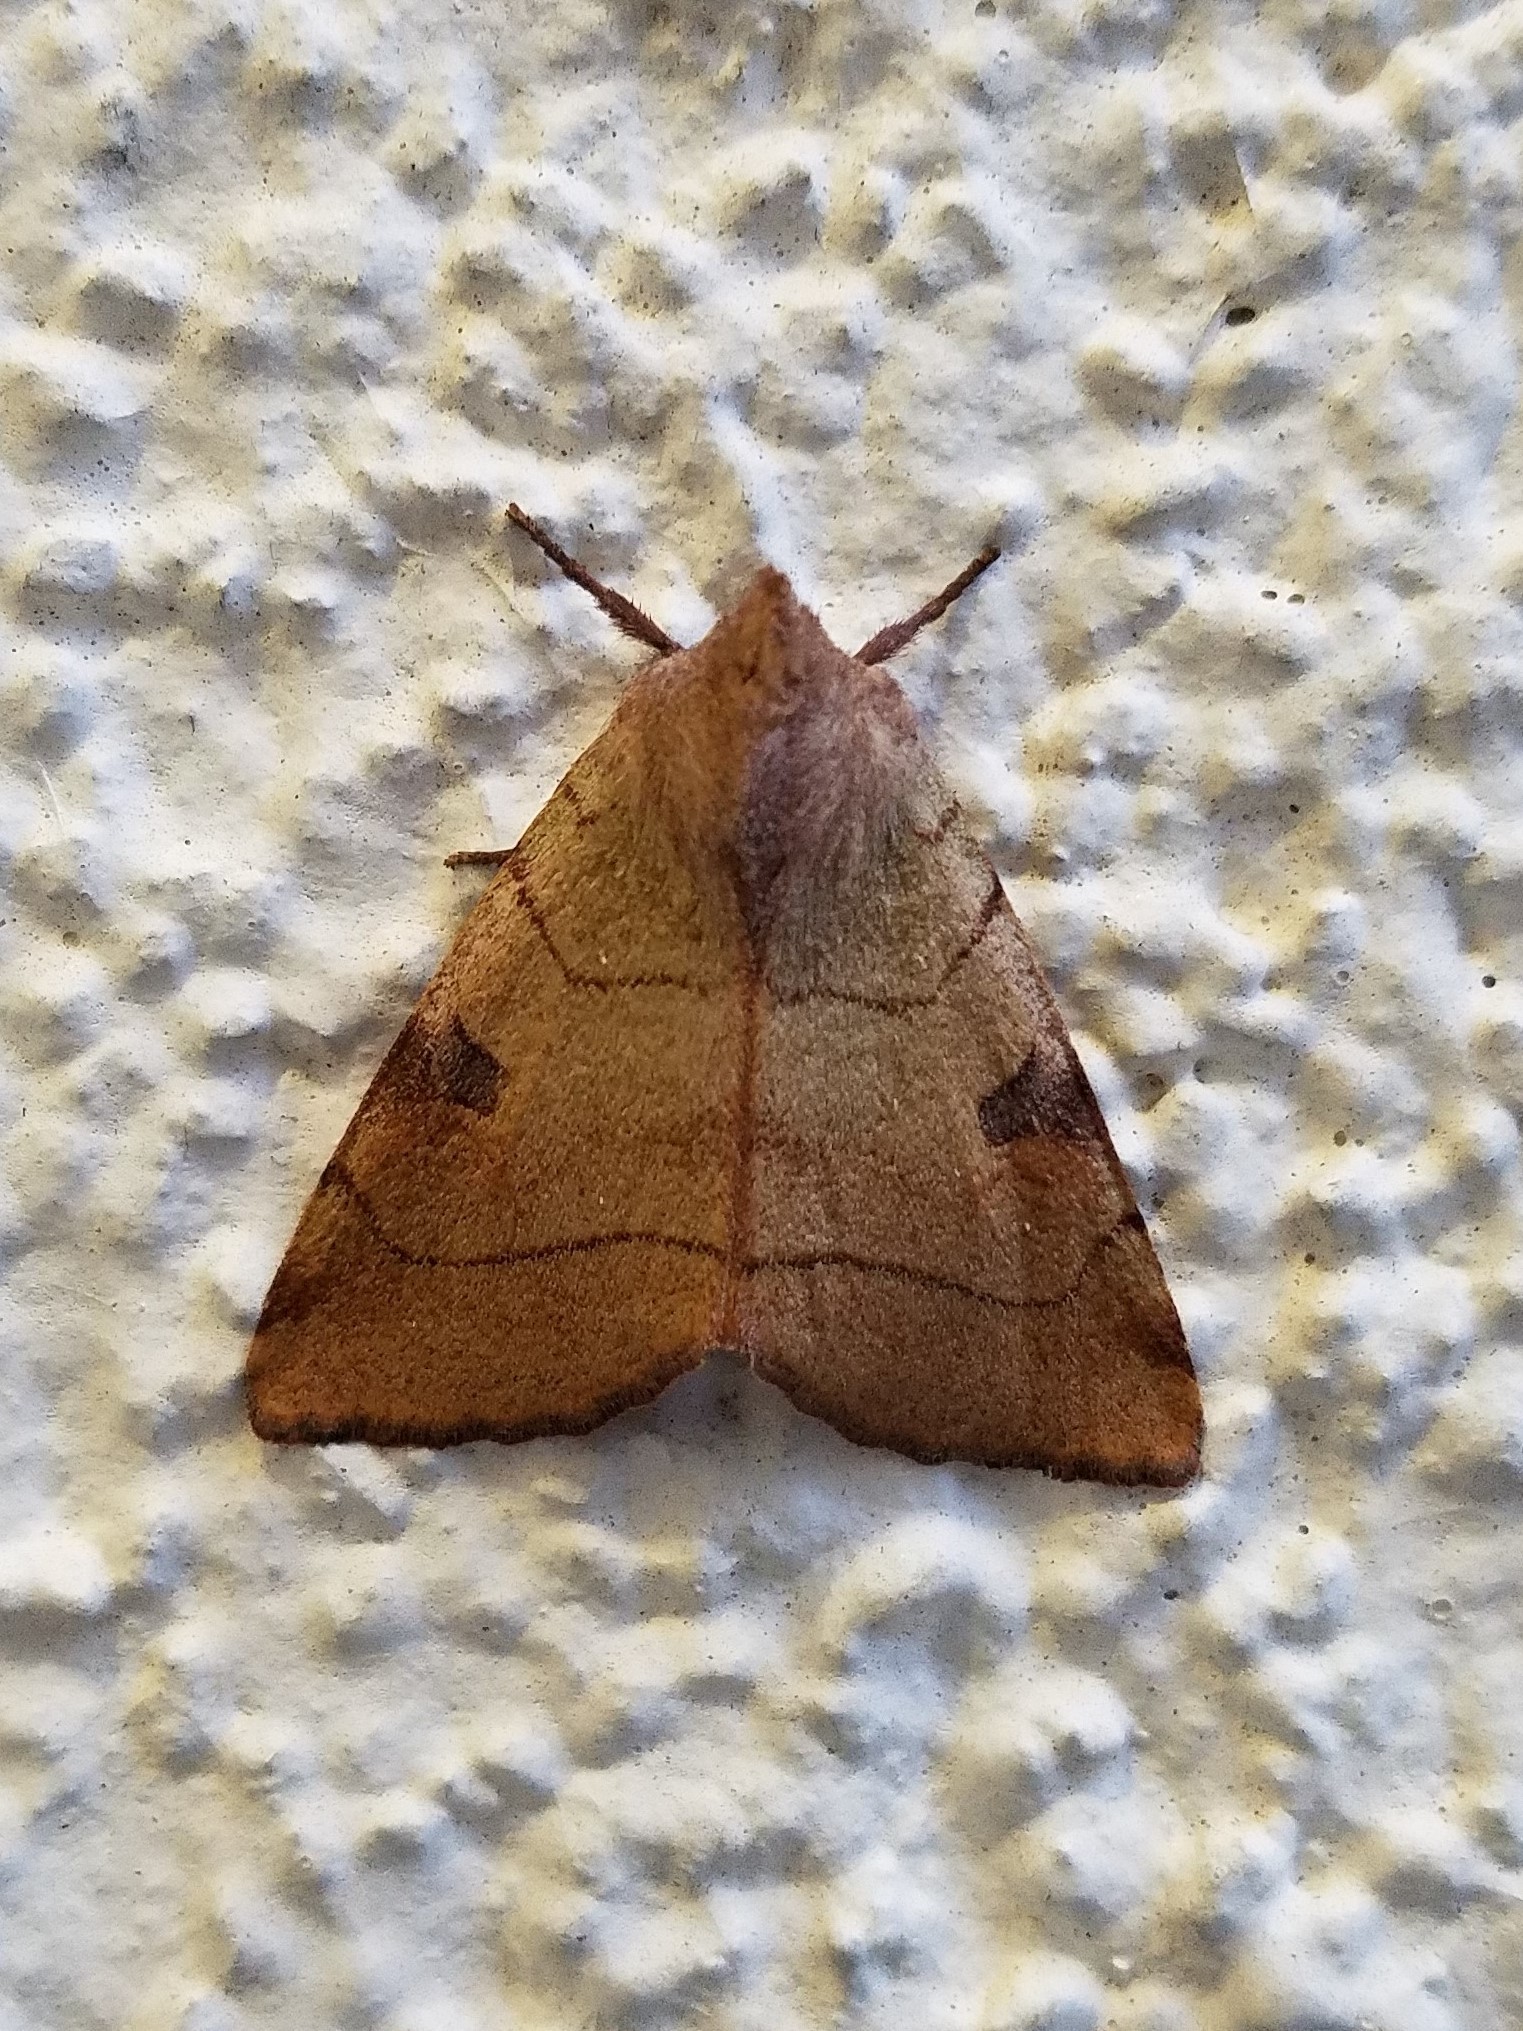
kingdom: Animalia
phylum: Arthropoda
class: Insecta
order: Lepidoptera
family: Noctuidae
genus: Choephora
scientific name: Choephora fungorum
